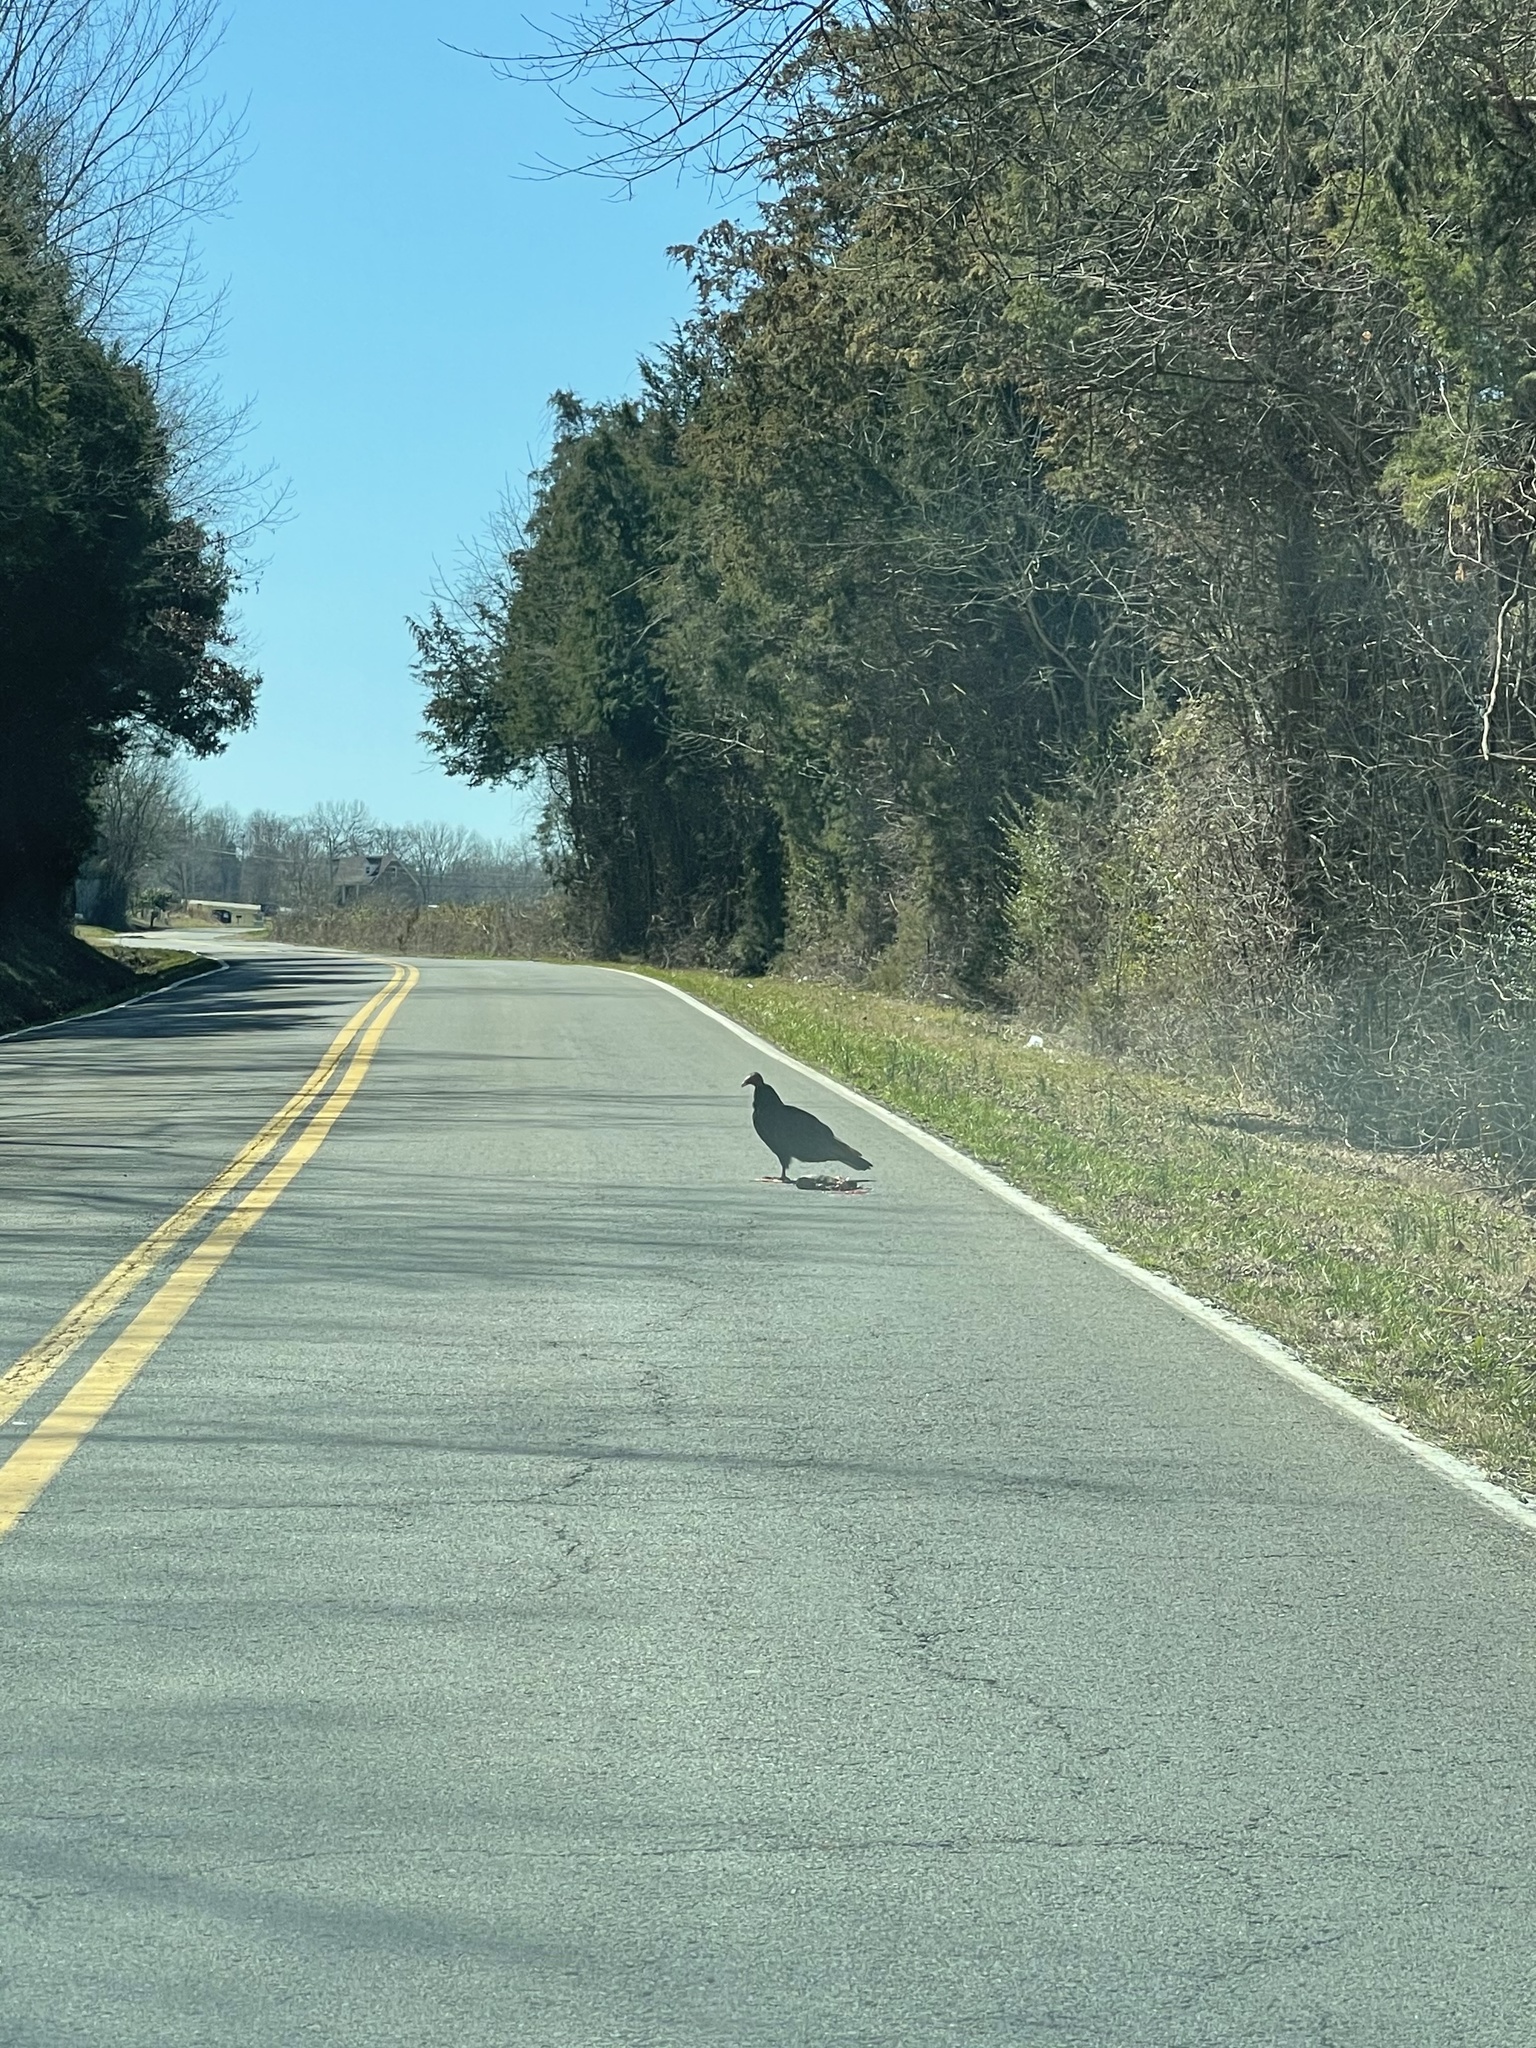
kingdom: Animalia
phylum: Chordata
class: Aves
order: Accipitriformes
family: Cathartidae
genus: Cathartes
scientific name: Cathartes aura
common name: Turkey vulture
